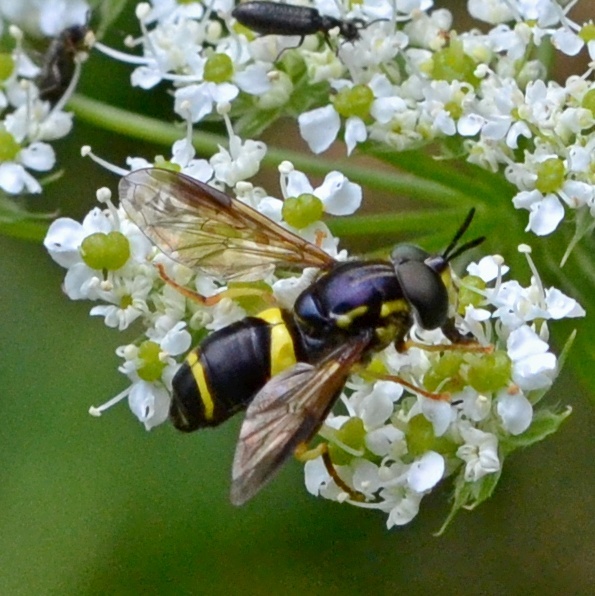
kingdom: Animalia
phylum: Arthropoda
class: Insecta
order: Diptera
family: Syrphidae
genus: Chrysotoxum
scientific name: Chrysotoxum bicincta
